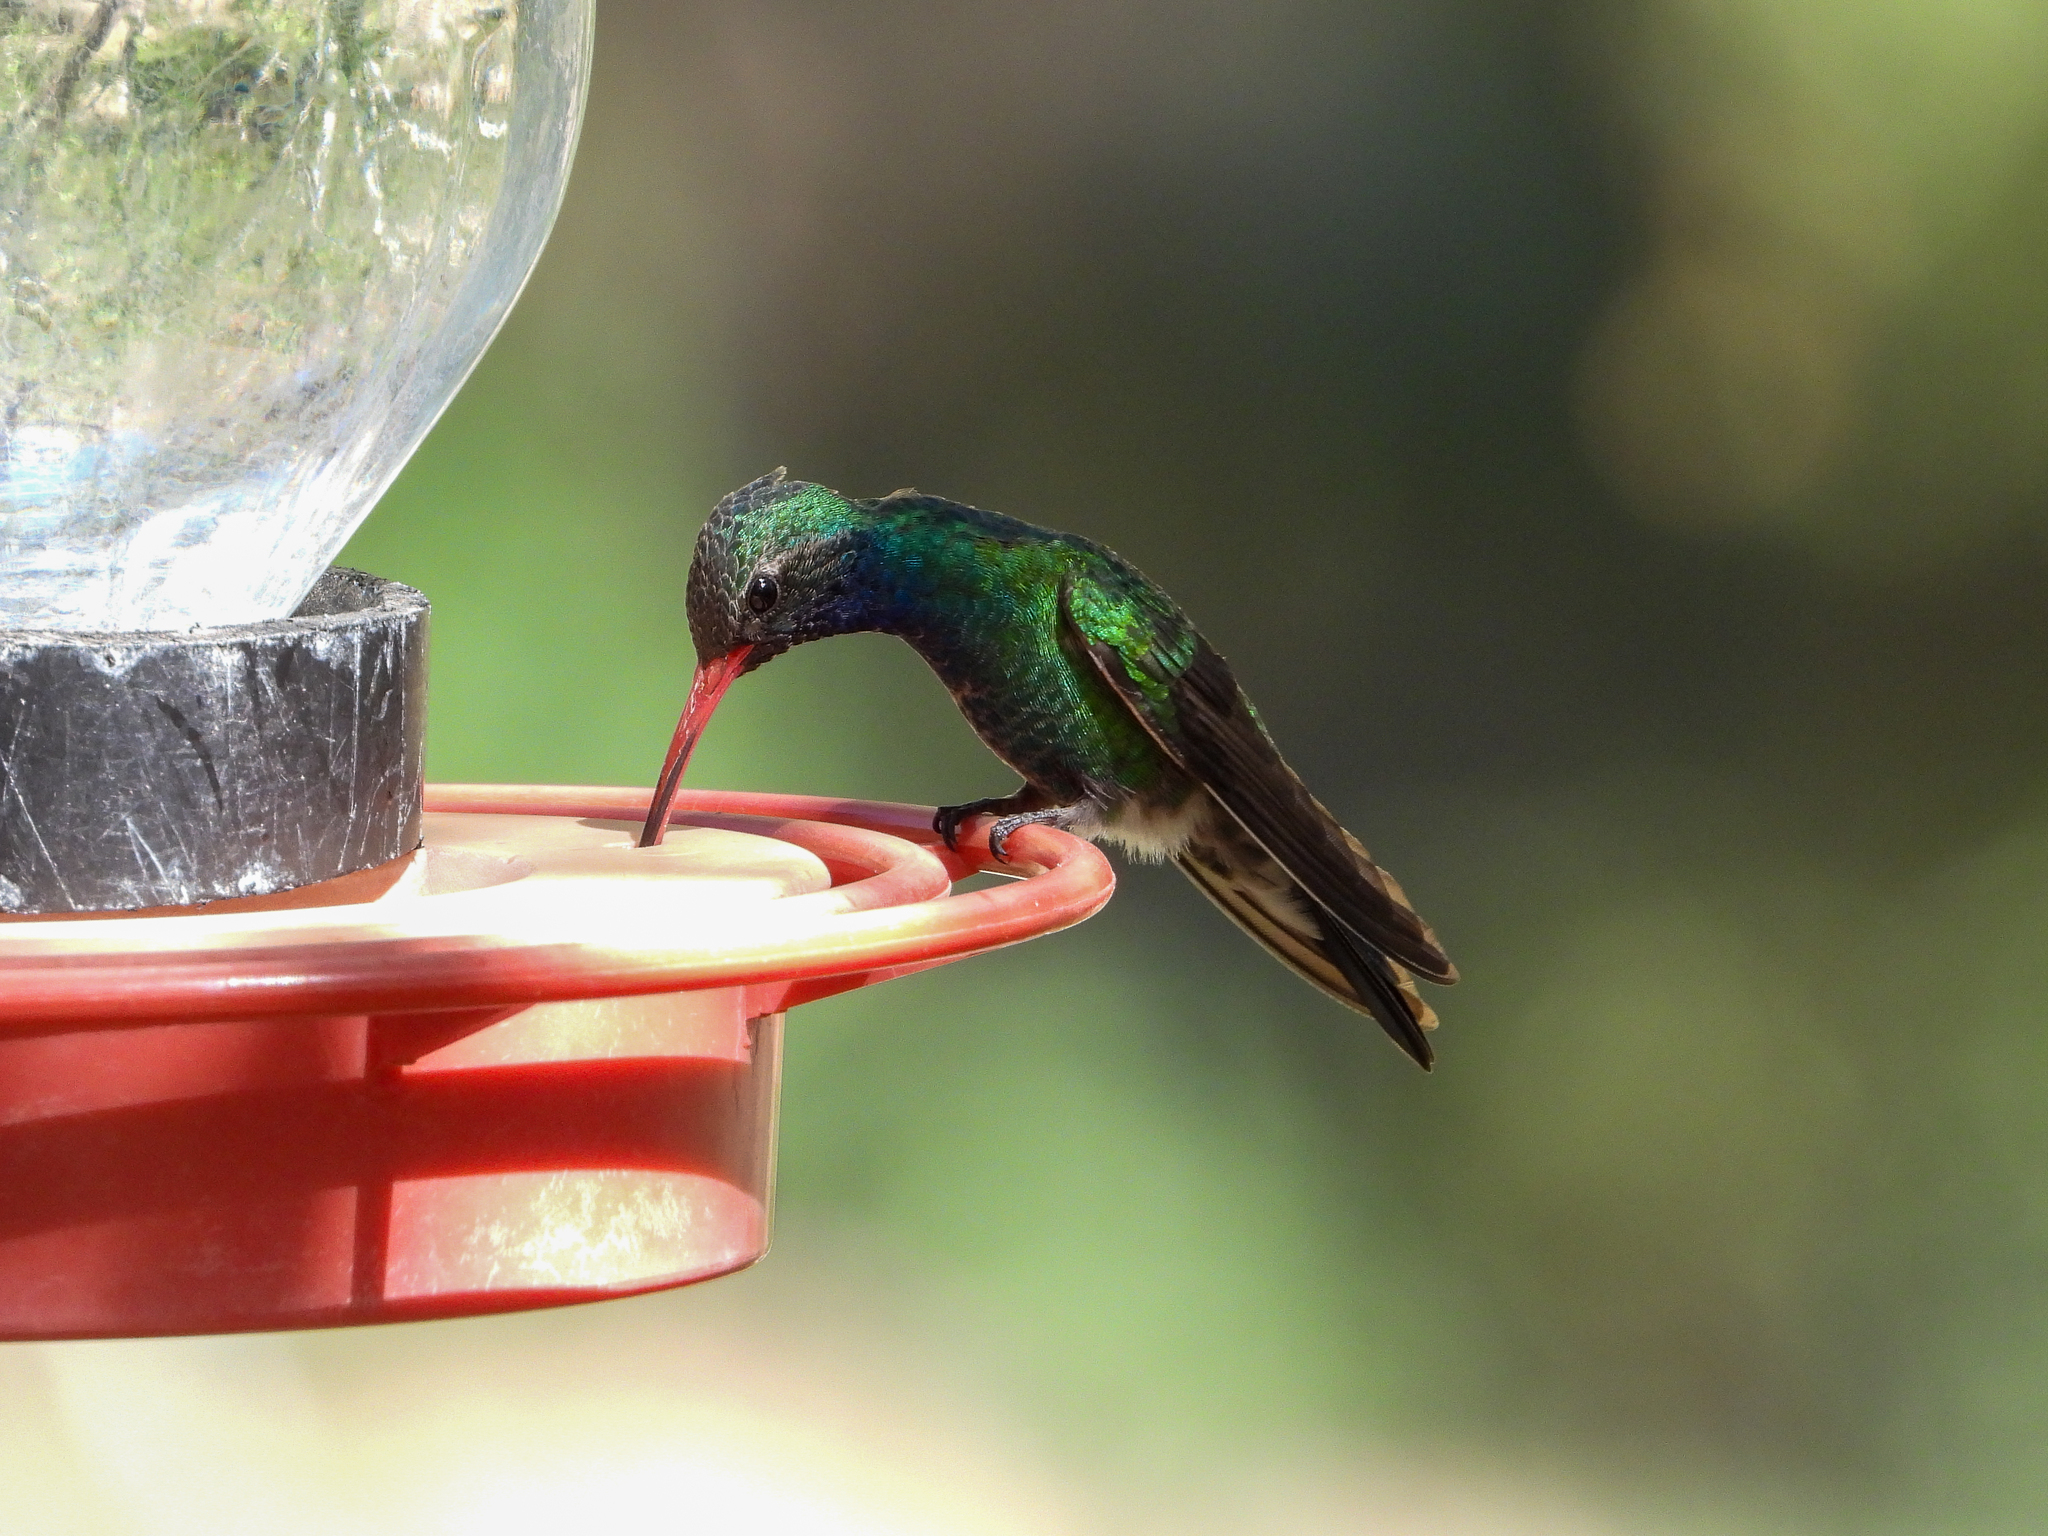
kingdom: Animalia
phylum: Chordata
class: Aves
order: Apodiformes
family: Trochilidae
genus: Cynanthus
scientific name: Cynanthus latirostris
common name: Broad-billed hummingbird
